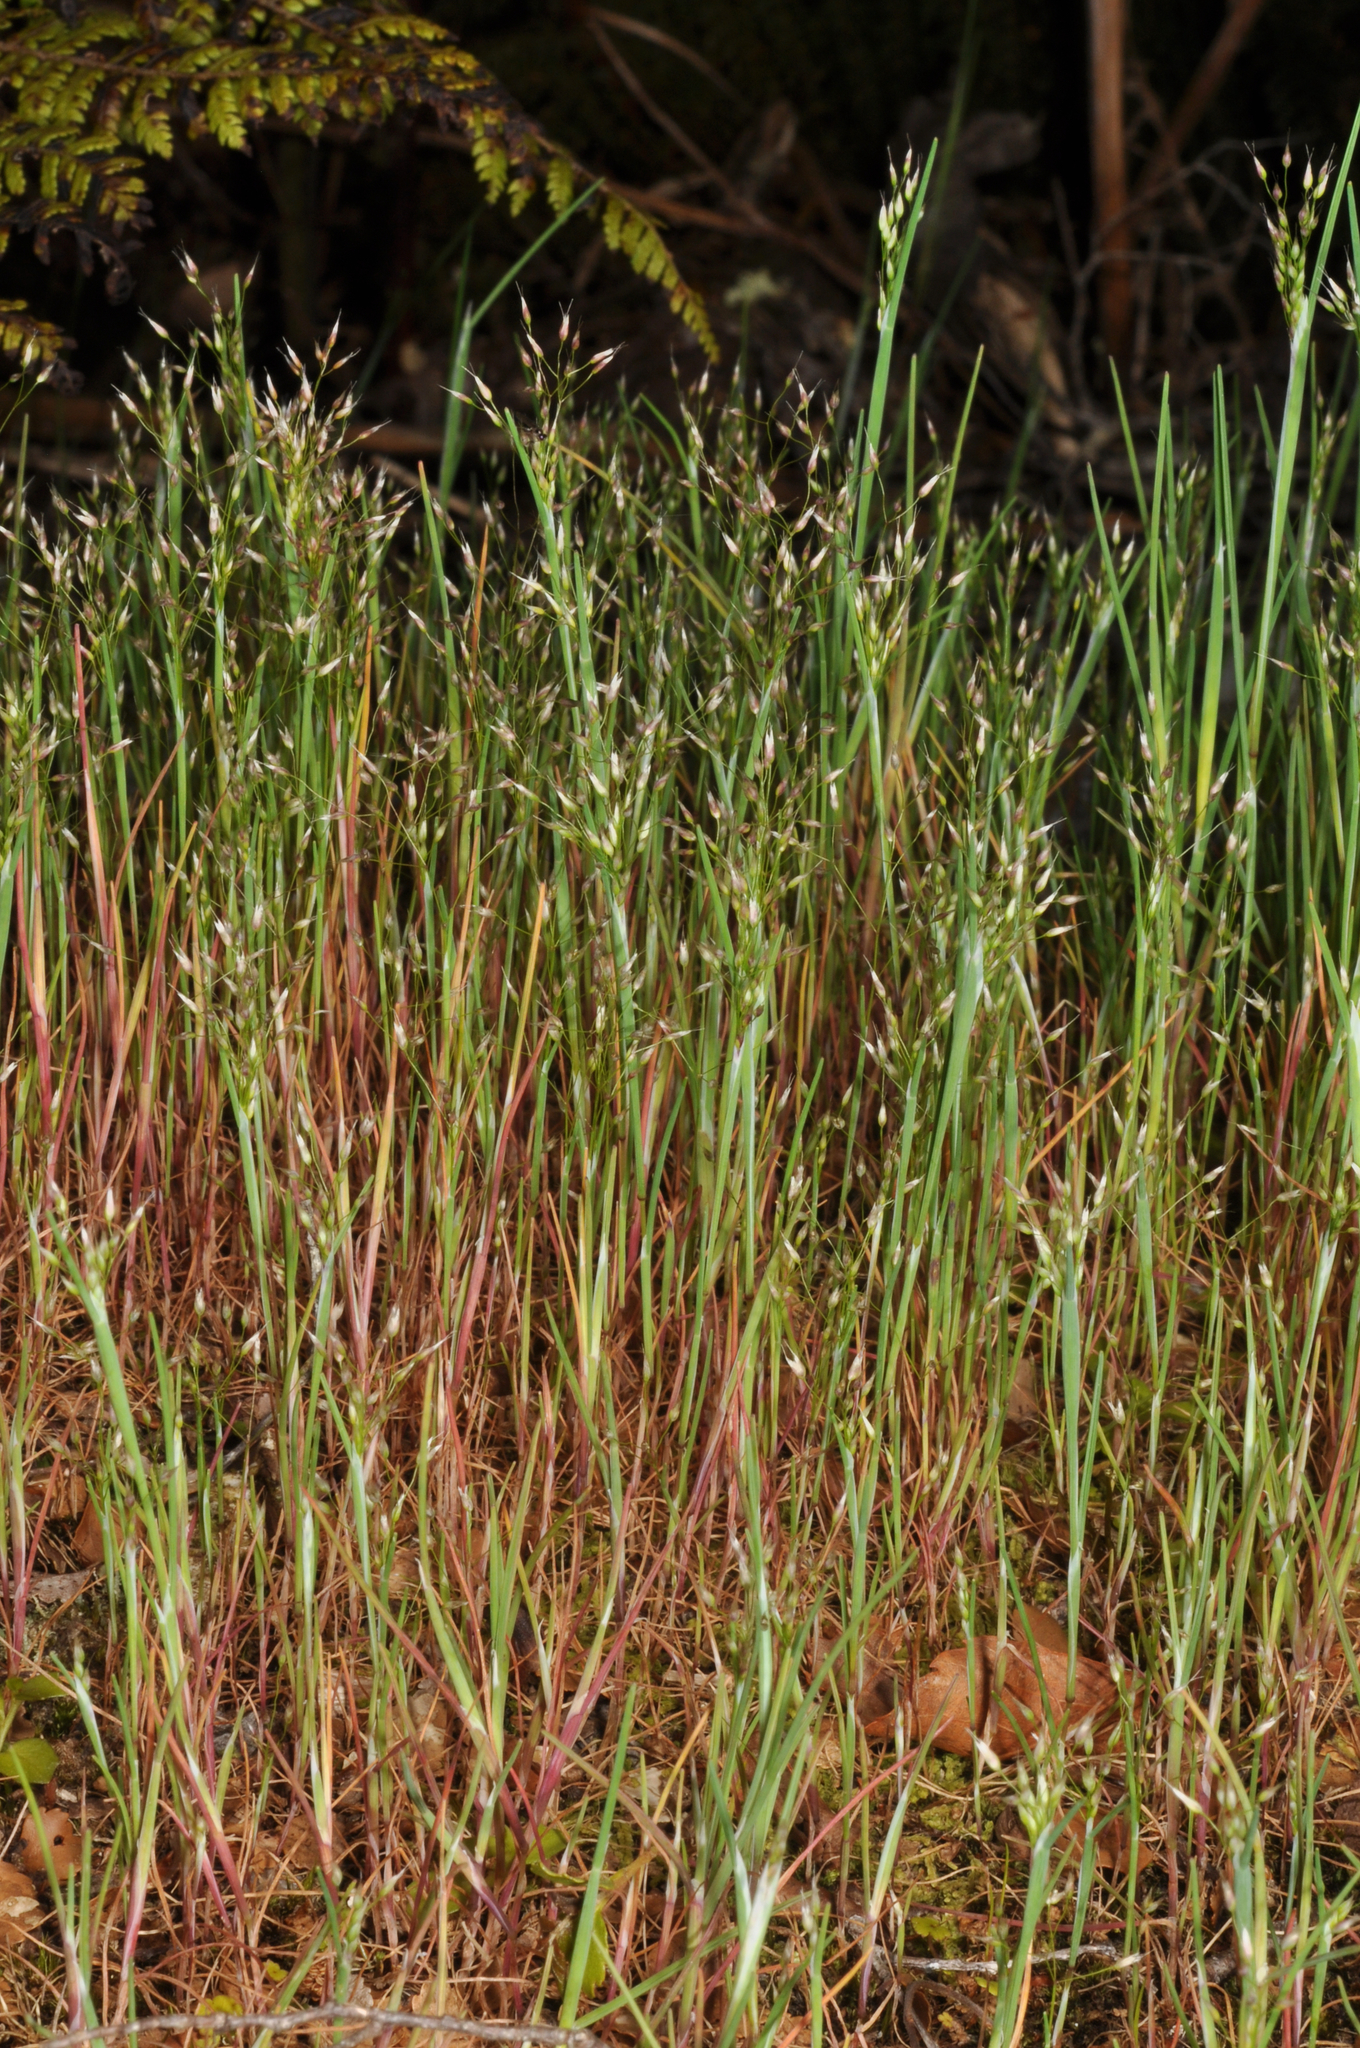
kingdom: Plantae
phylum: Tracheophyta
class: Liliopsida
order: Poales
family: Poaceae
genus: Aira
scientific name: Aira caryophyllea
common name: Silver hairgrass
